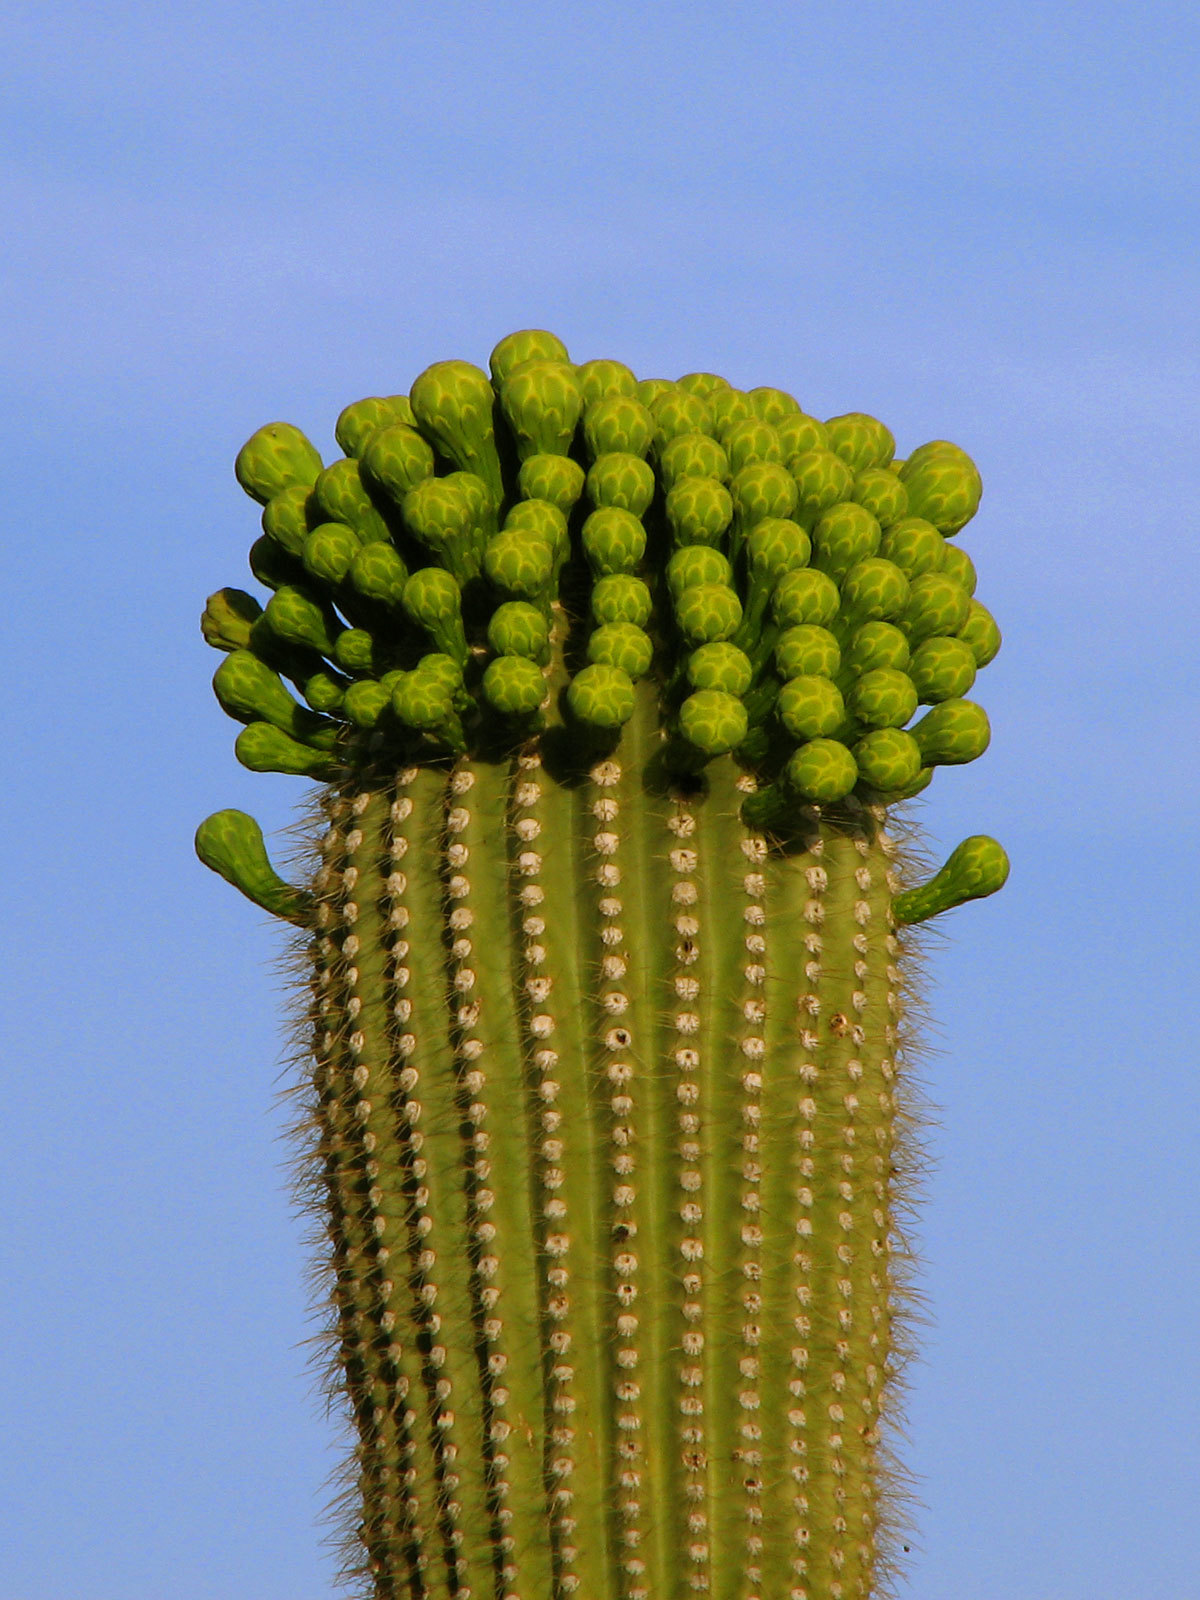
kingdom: Plantae
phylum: Tracheophyta
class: Magnoliopsida
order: Caryophyllales
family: Cactaceae
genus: Carnegiea
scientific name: Carnegiea gigantea
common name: Saguaro
